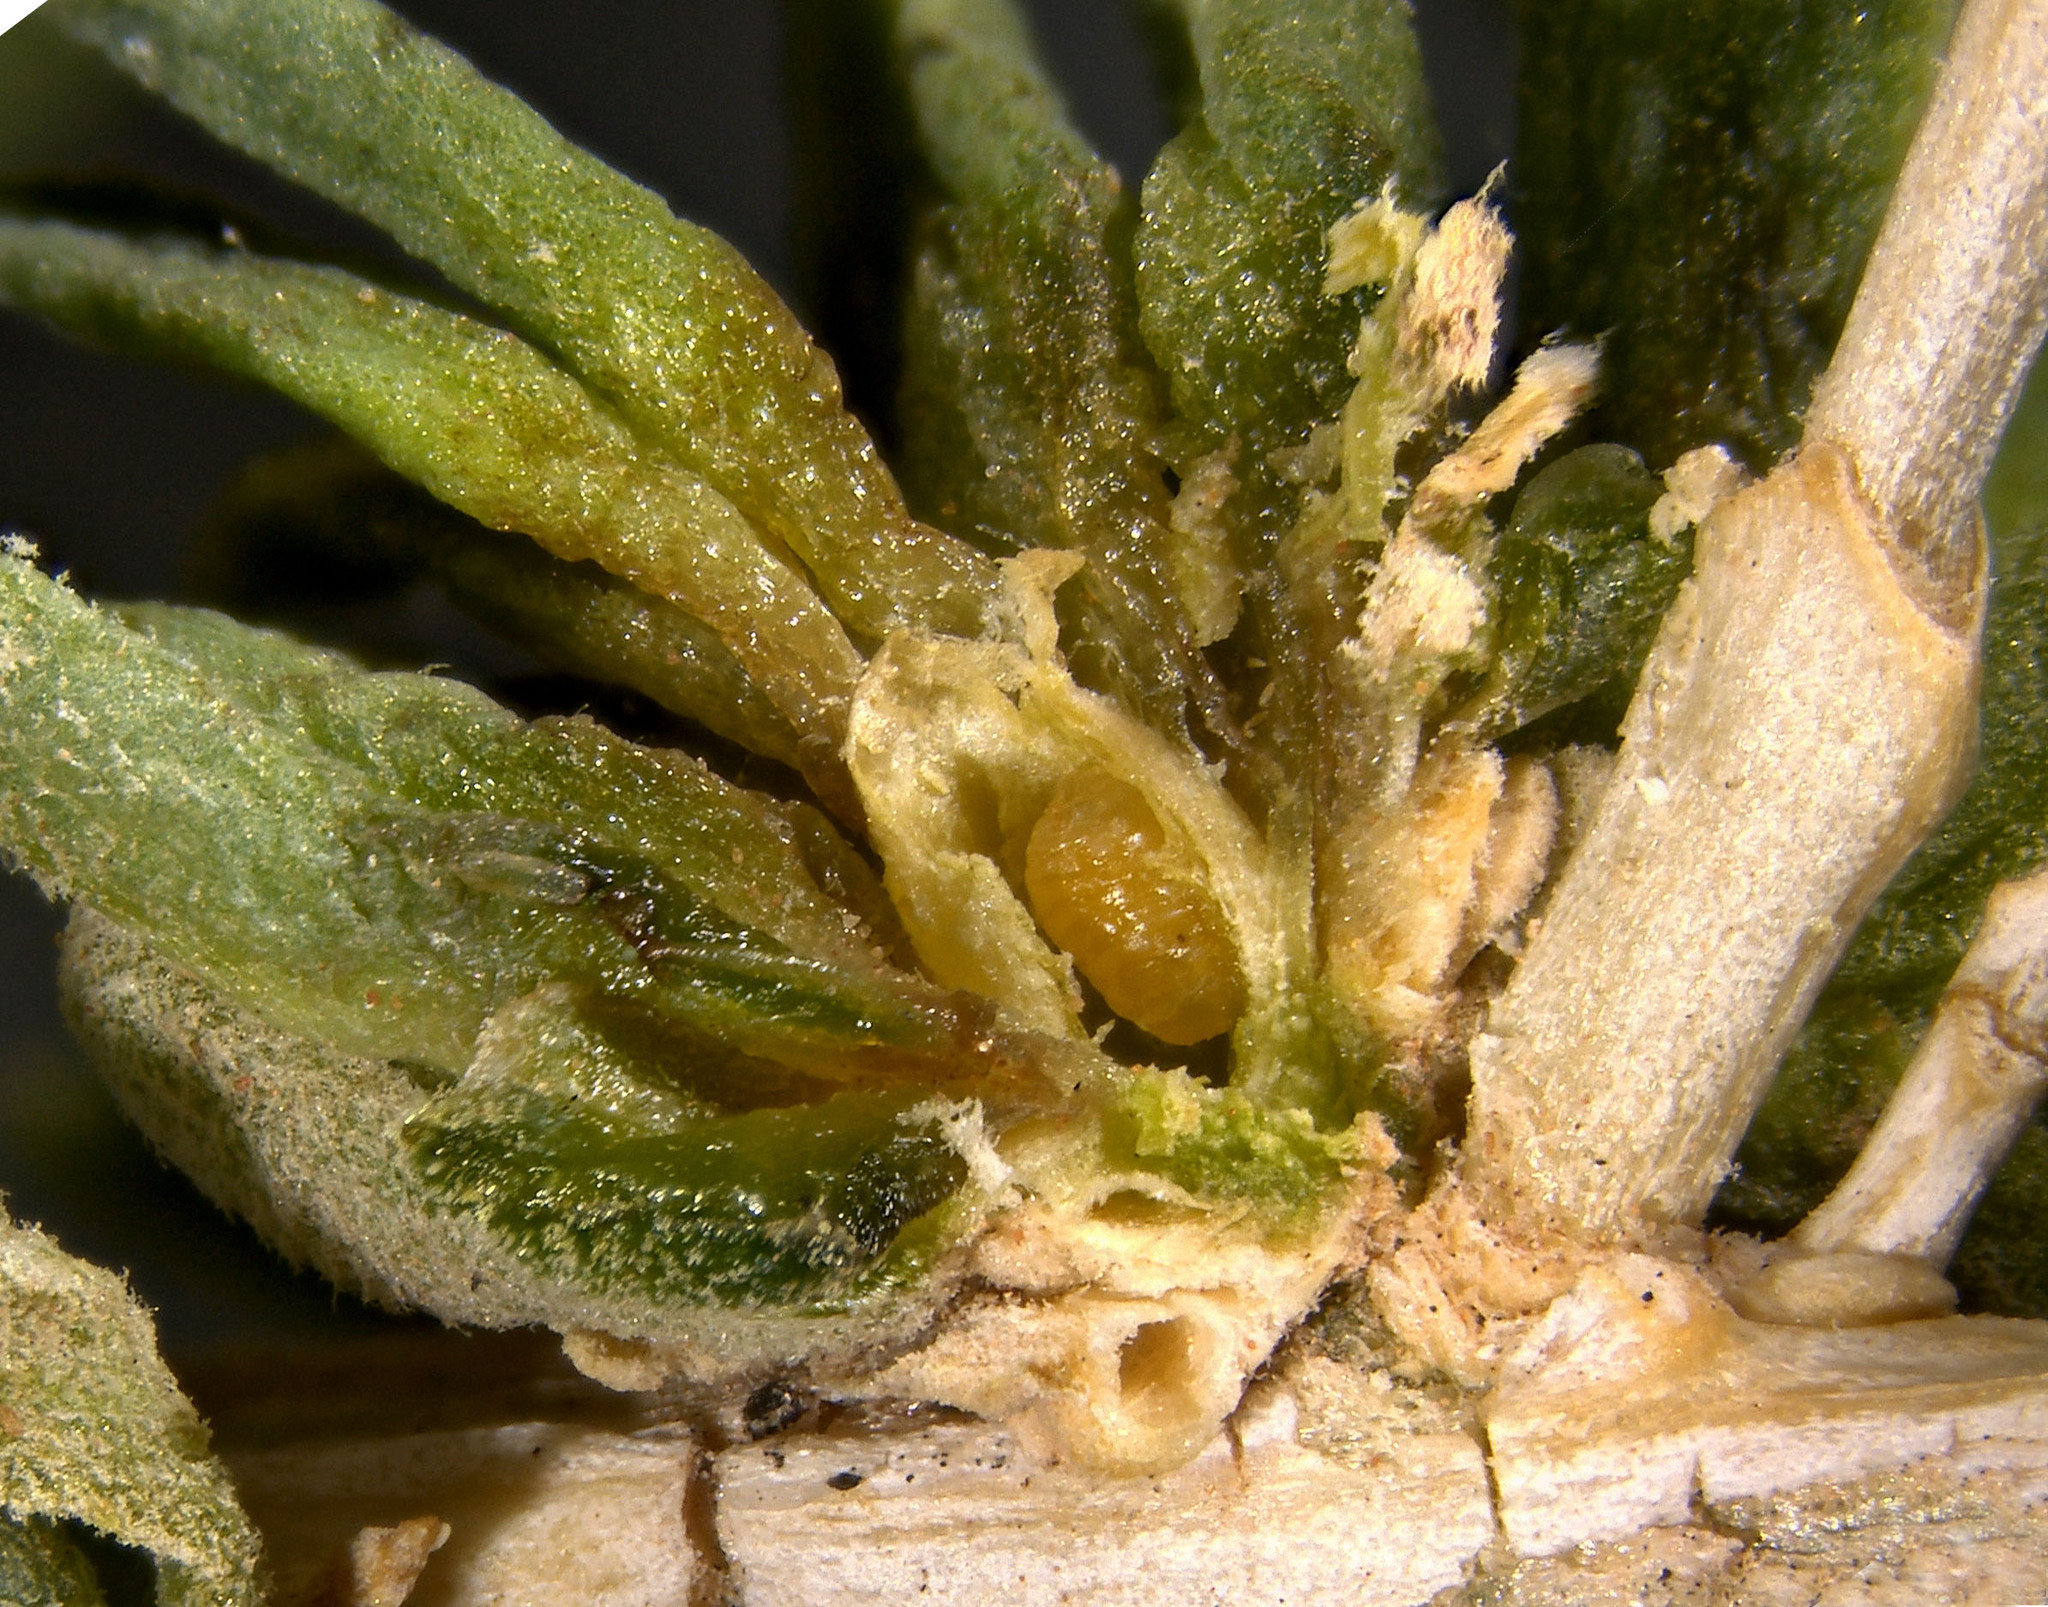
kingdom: Animalia
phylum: Arthropoda
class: Insecta
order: Diptera
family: Cecidomyiidae
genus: Halodiplosis
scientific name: Halodiplosis sarcobati
